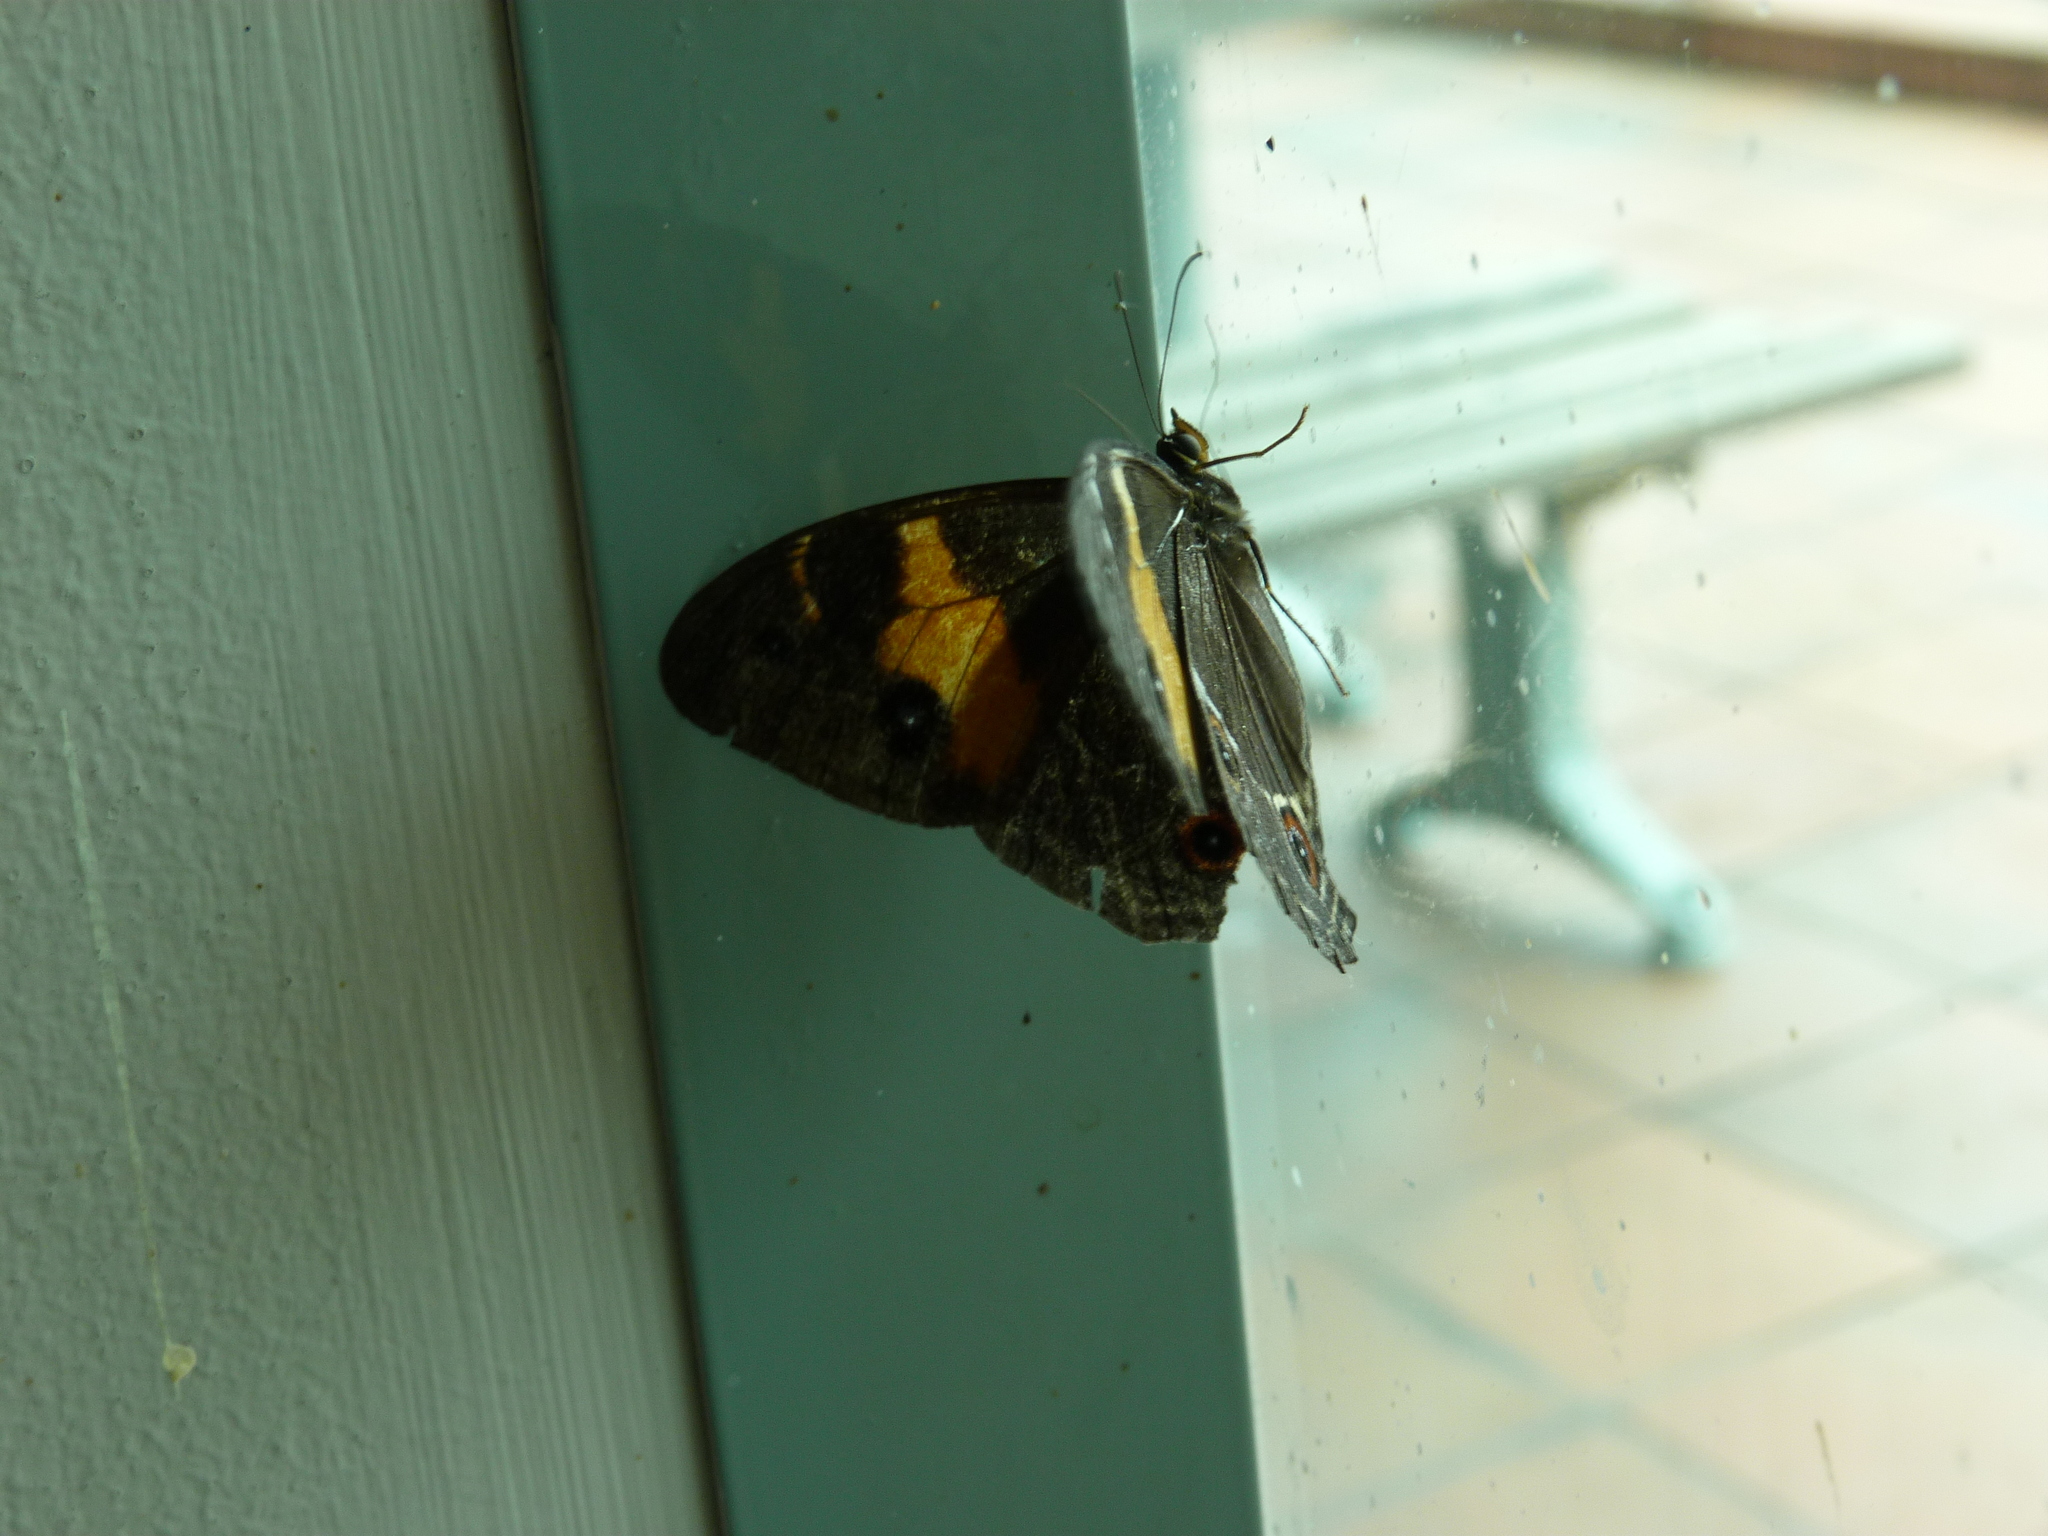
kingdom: Animalia
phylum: Arthropoda
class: Insecta
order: Lepidoptera
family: Nymphalidae
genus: Tisiphone
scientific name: Tisiphone abeona
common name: Swordgrass brown
